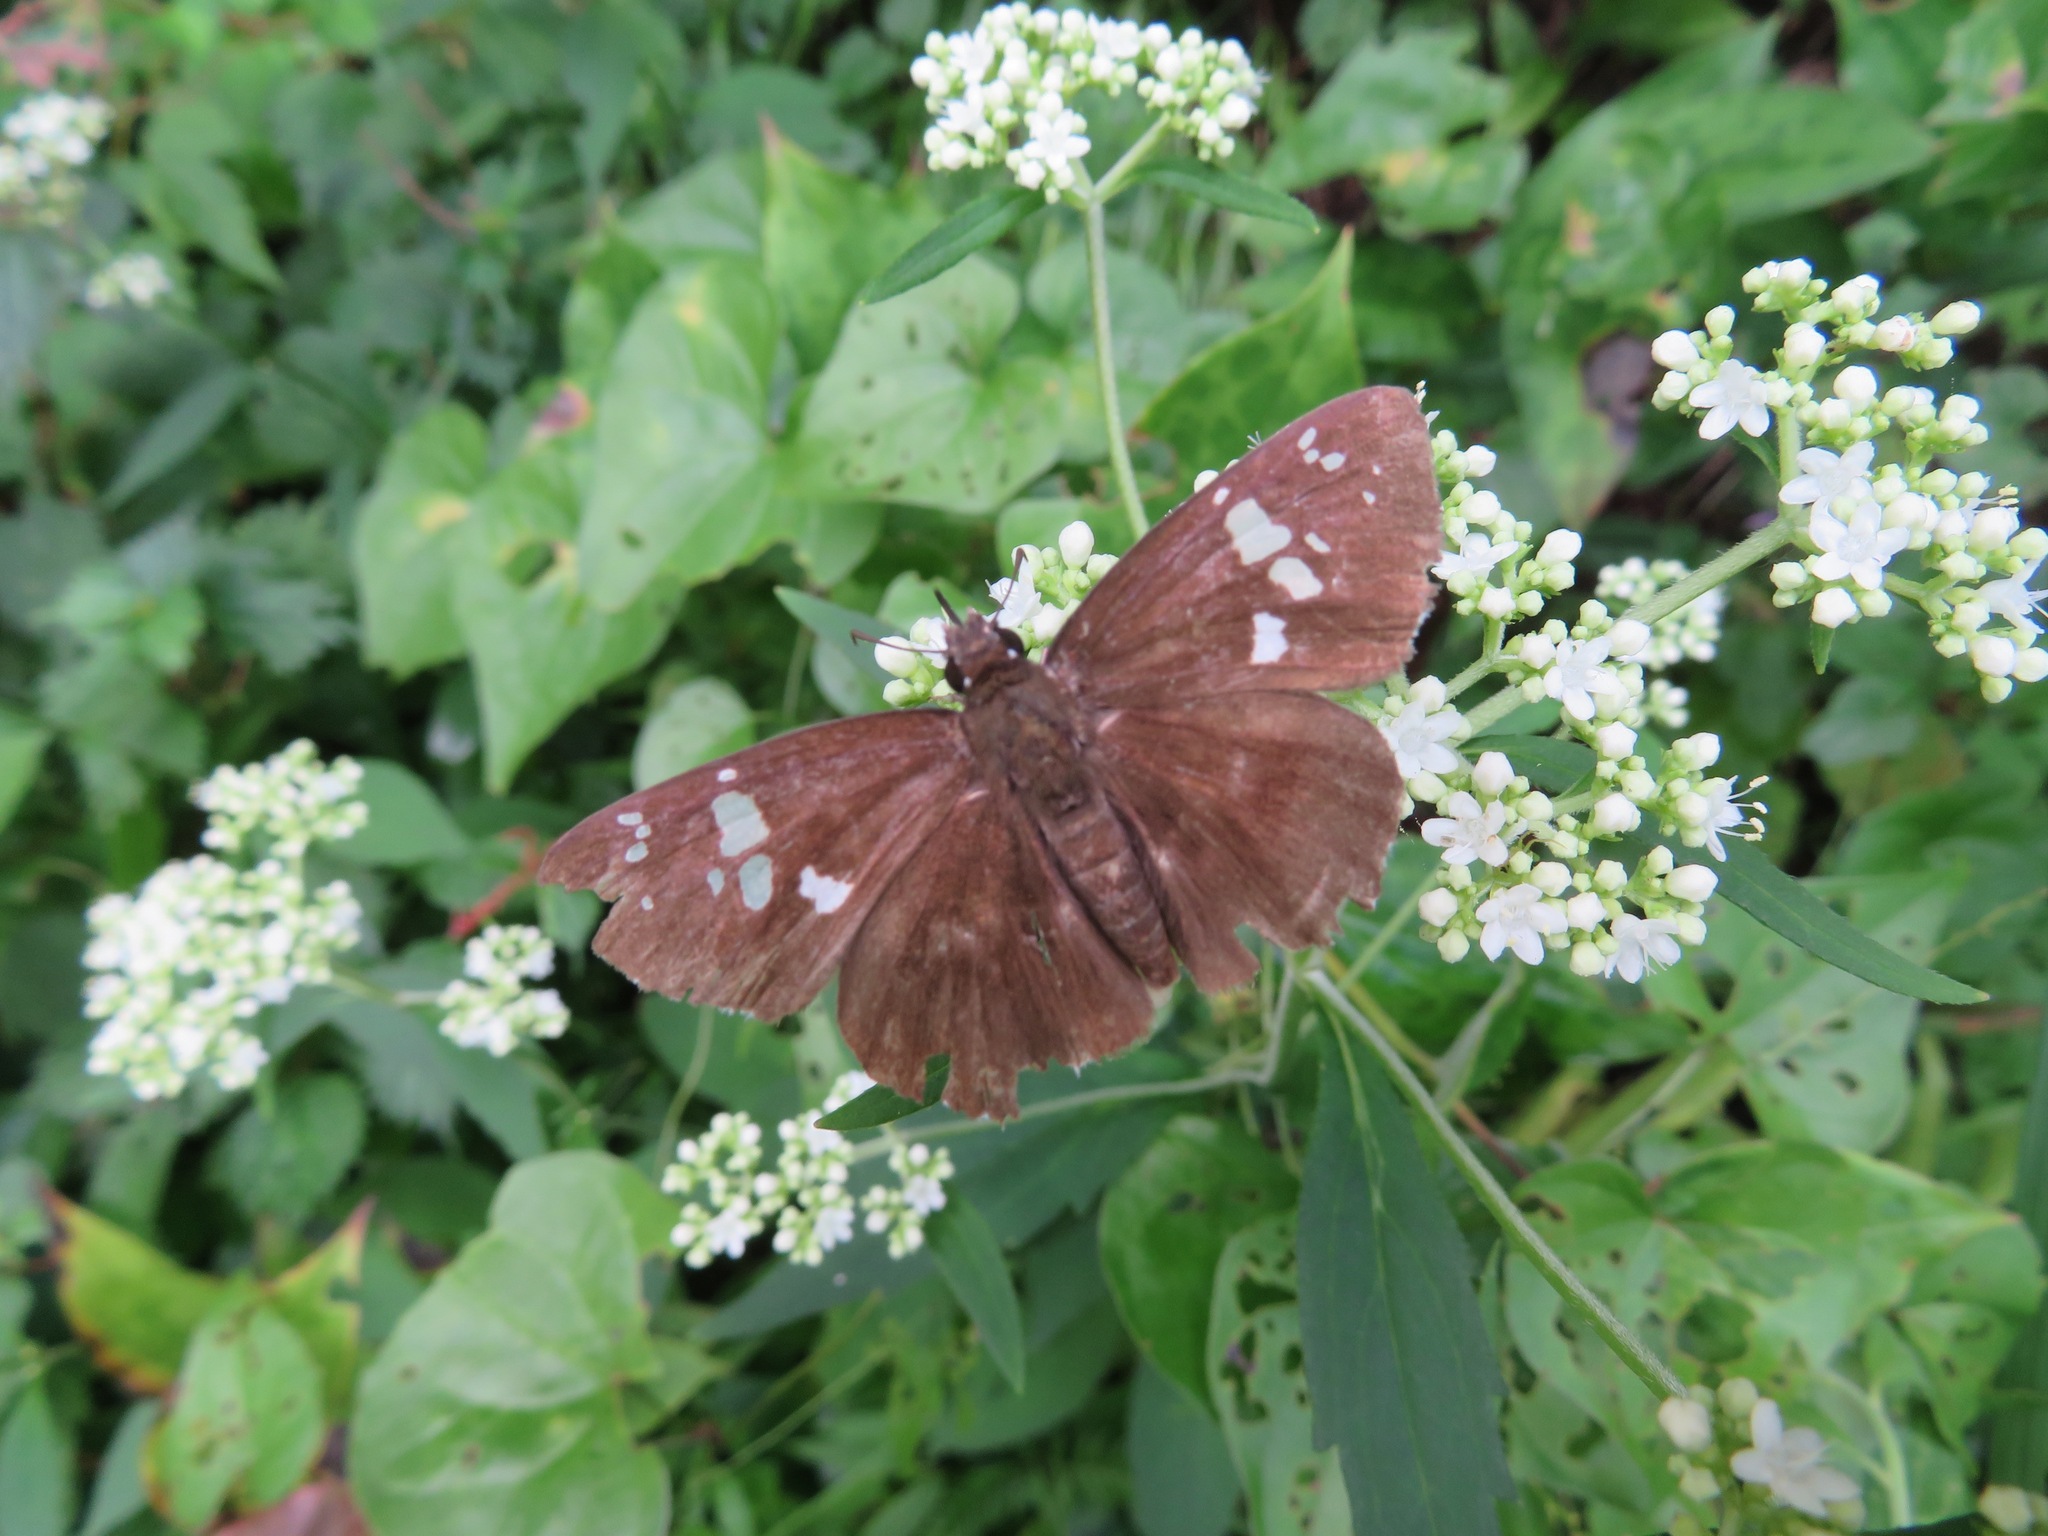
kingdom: Animalia
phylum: Arthropoda
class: Insecta
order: Lepidoptera
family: Hesperiidae
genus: Daimio
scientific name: Daimio tethys
